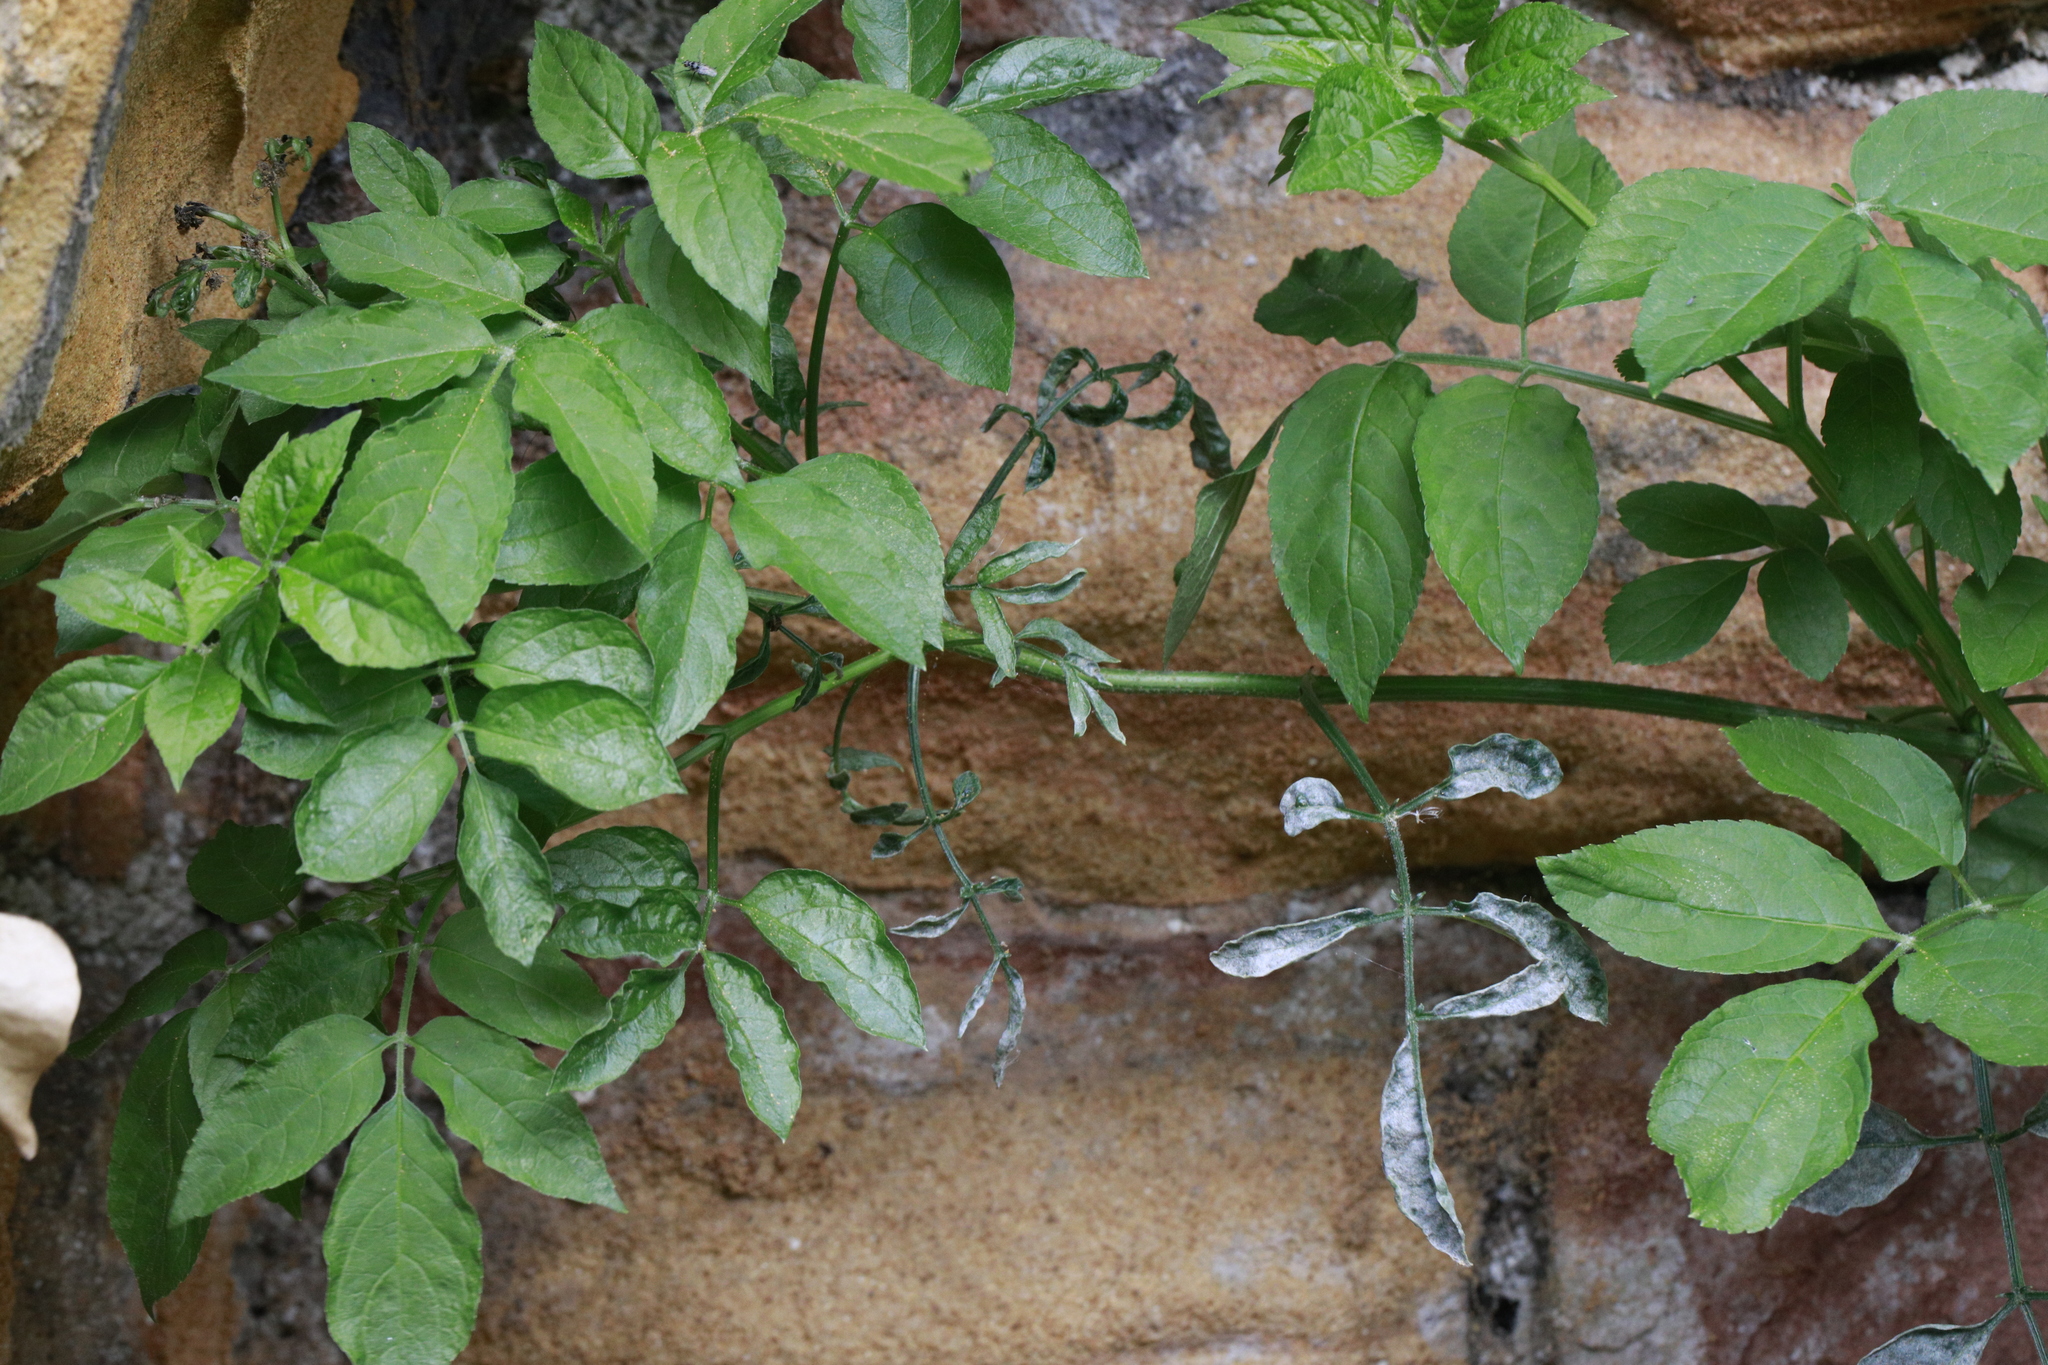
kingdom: Plantae
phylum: Tracheophyta
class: Magnoliopsida
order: Dipsacales
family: Viburnaceae
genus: Sambucus
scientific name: Sambucus nigra
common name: Elder
